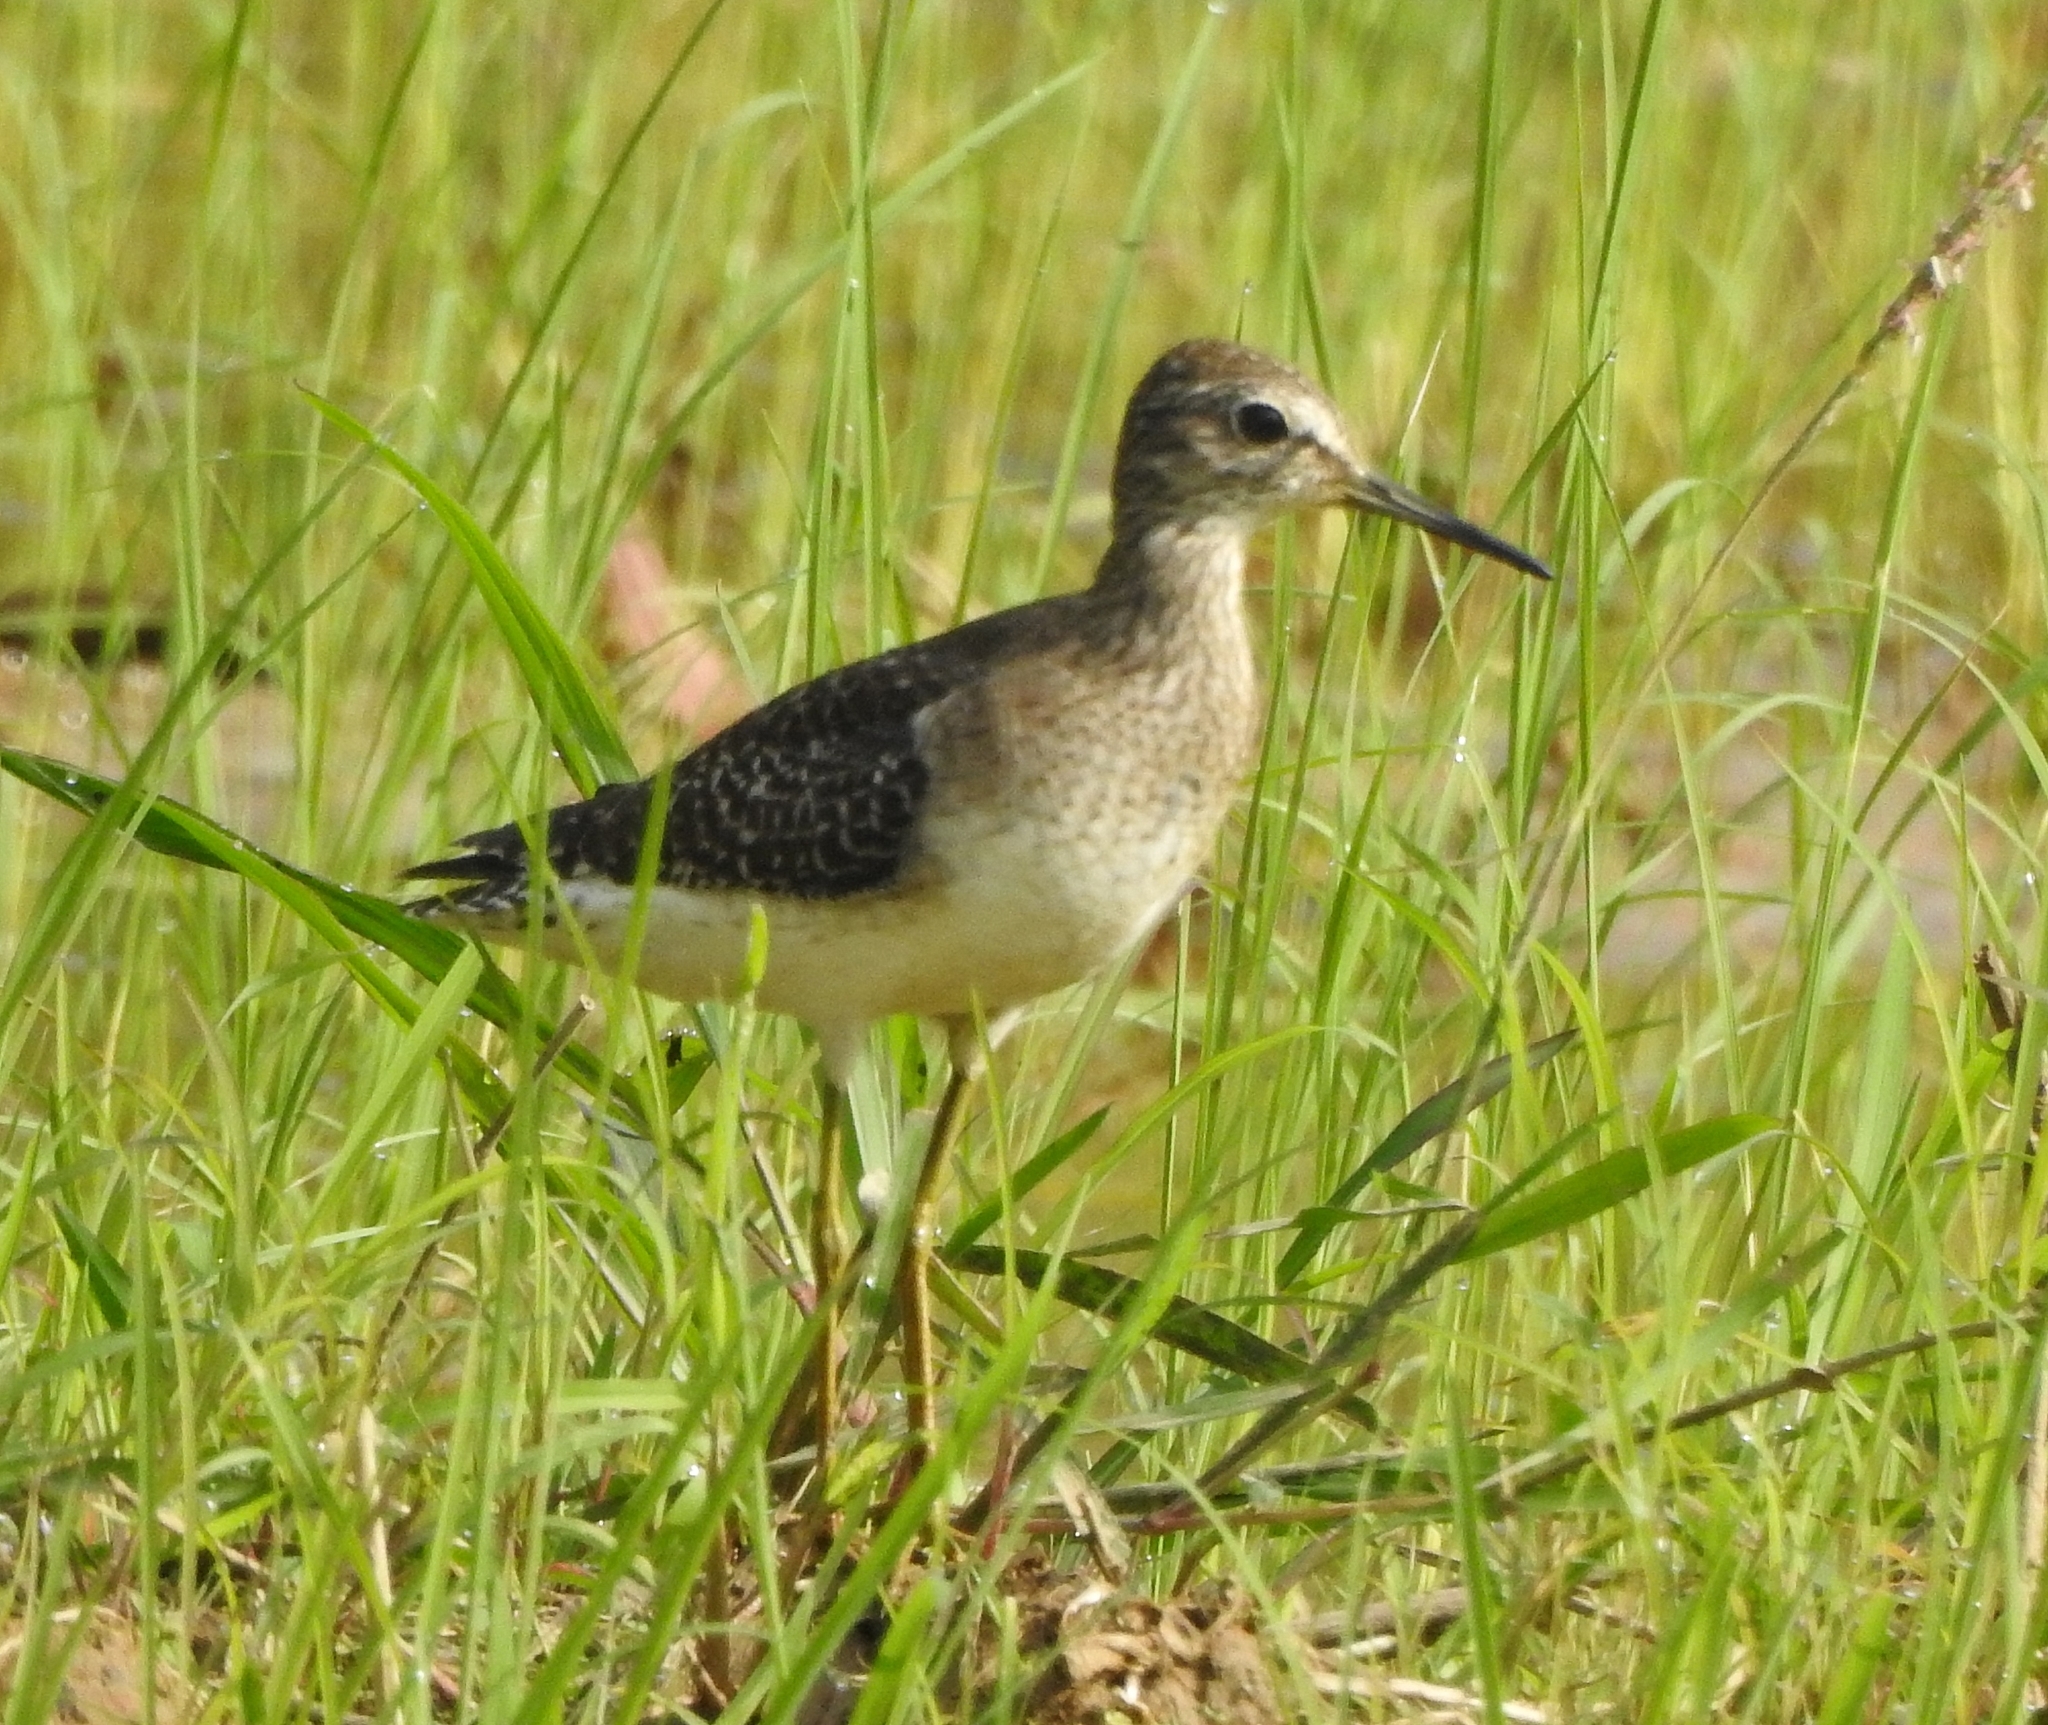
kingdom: Animalia
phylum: Chordata
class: Aves
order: Charadriiformes
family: Scolopacidae
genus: Tringa
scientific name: Tringa glareola
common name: Wood sandpiper
